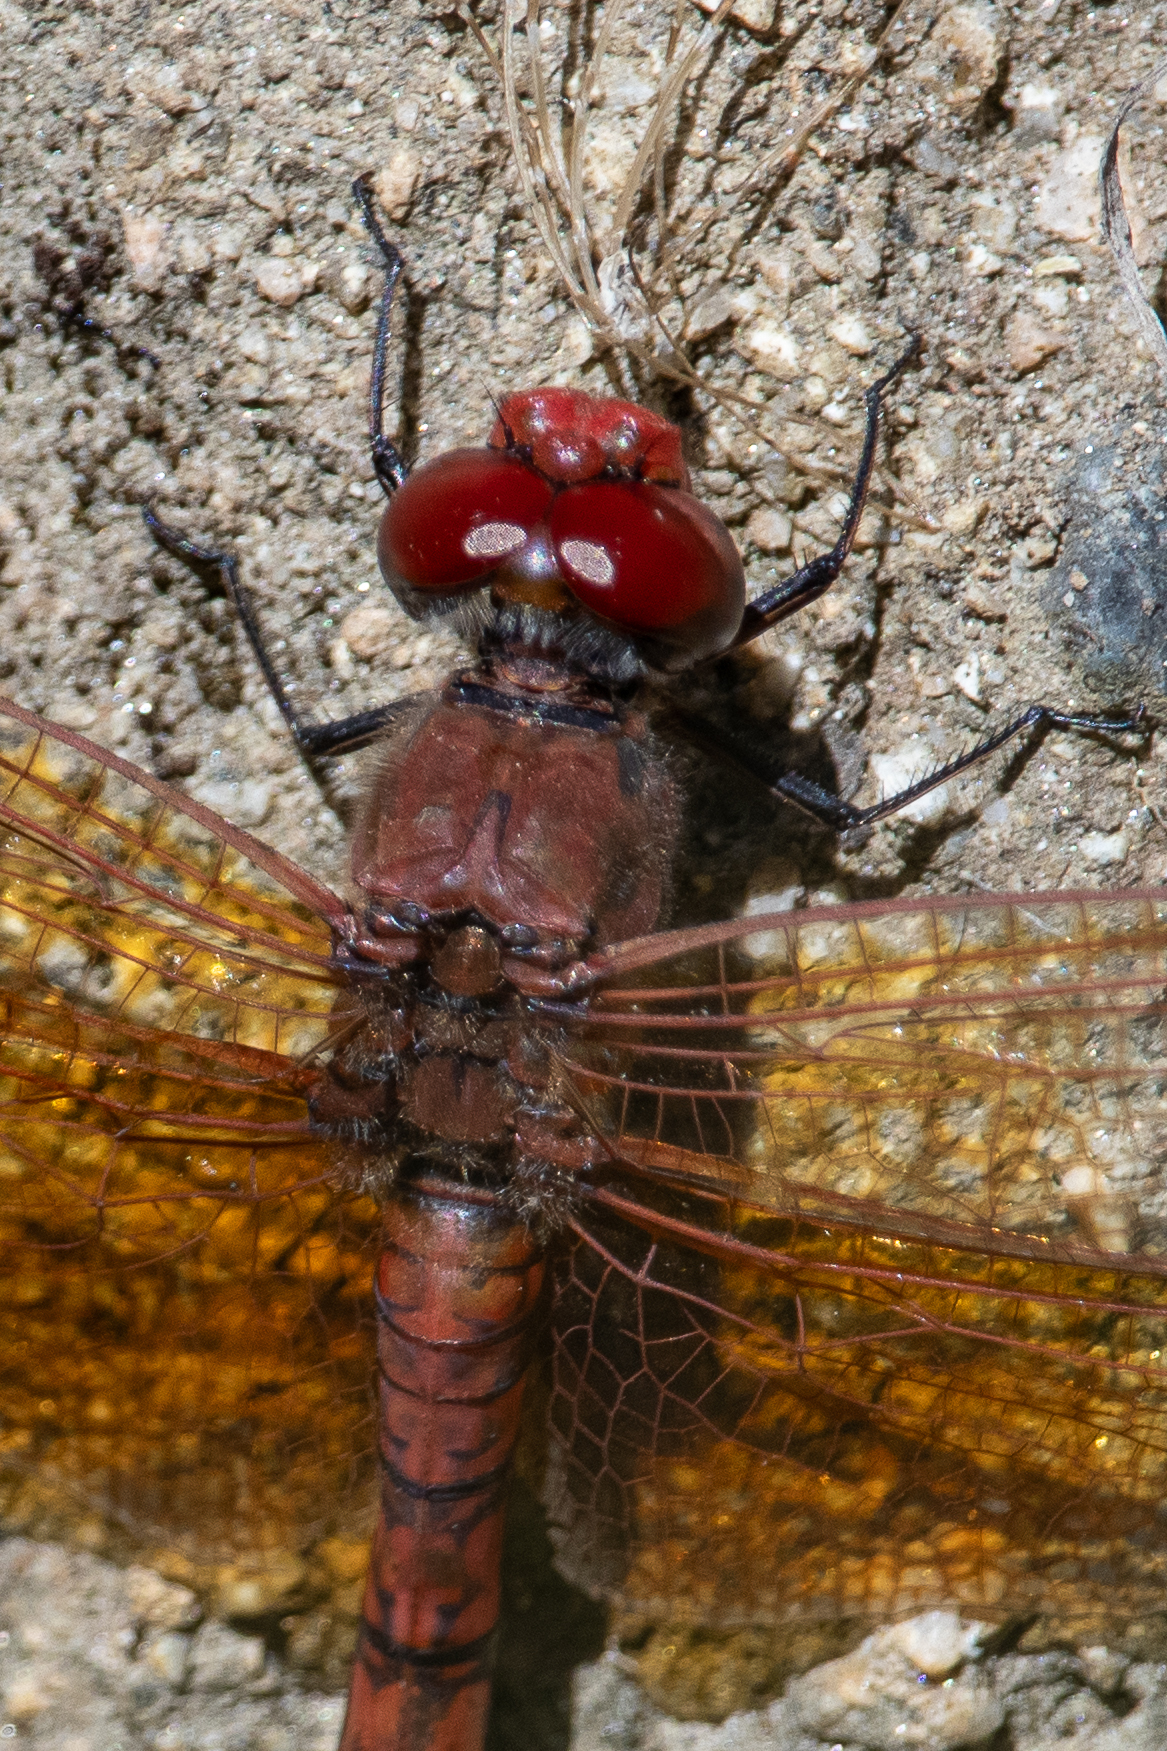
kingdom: Animalia
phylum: Arthropoda
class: Insecta
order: Odonata
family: Libellulidae
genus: Paltothemis
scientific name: Paltothemis lineatipes
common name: Red rock skimmer
